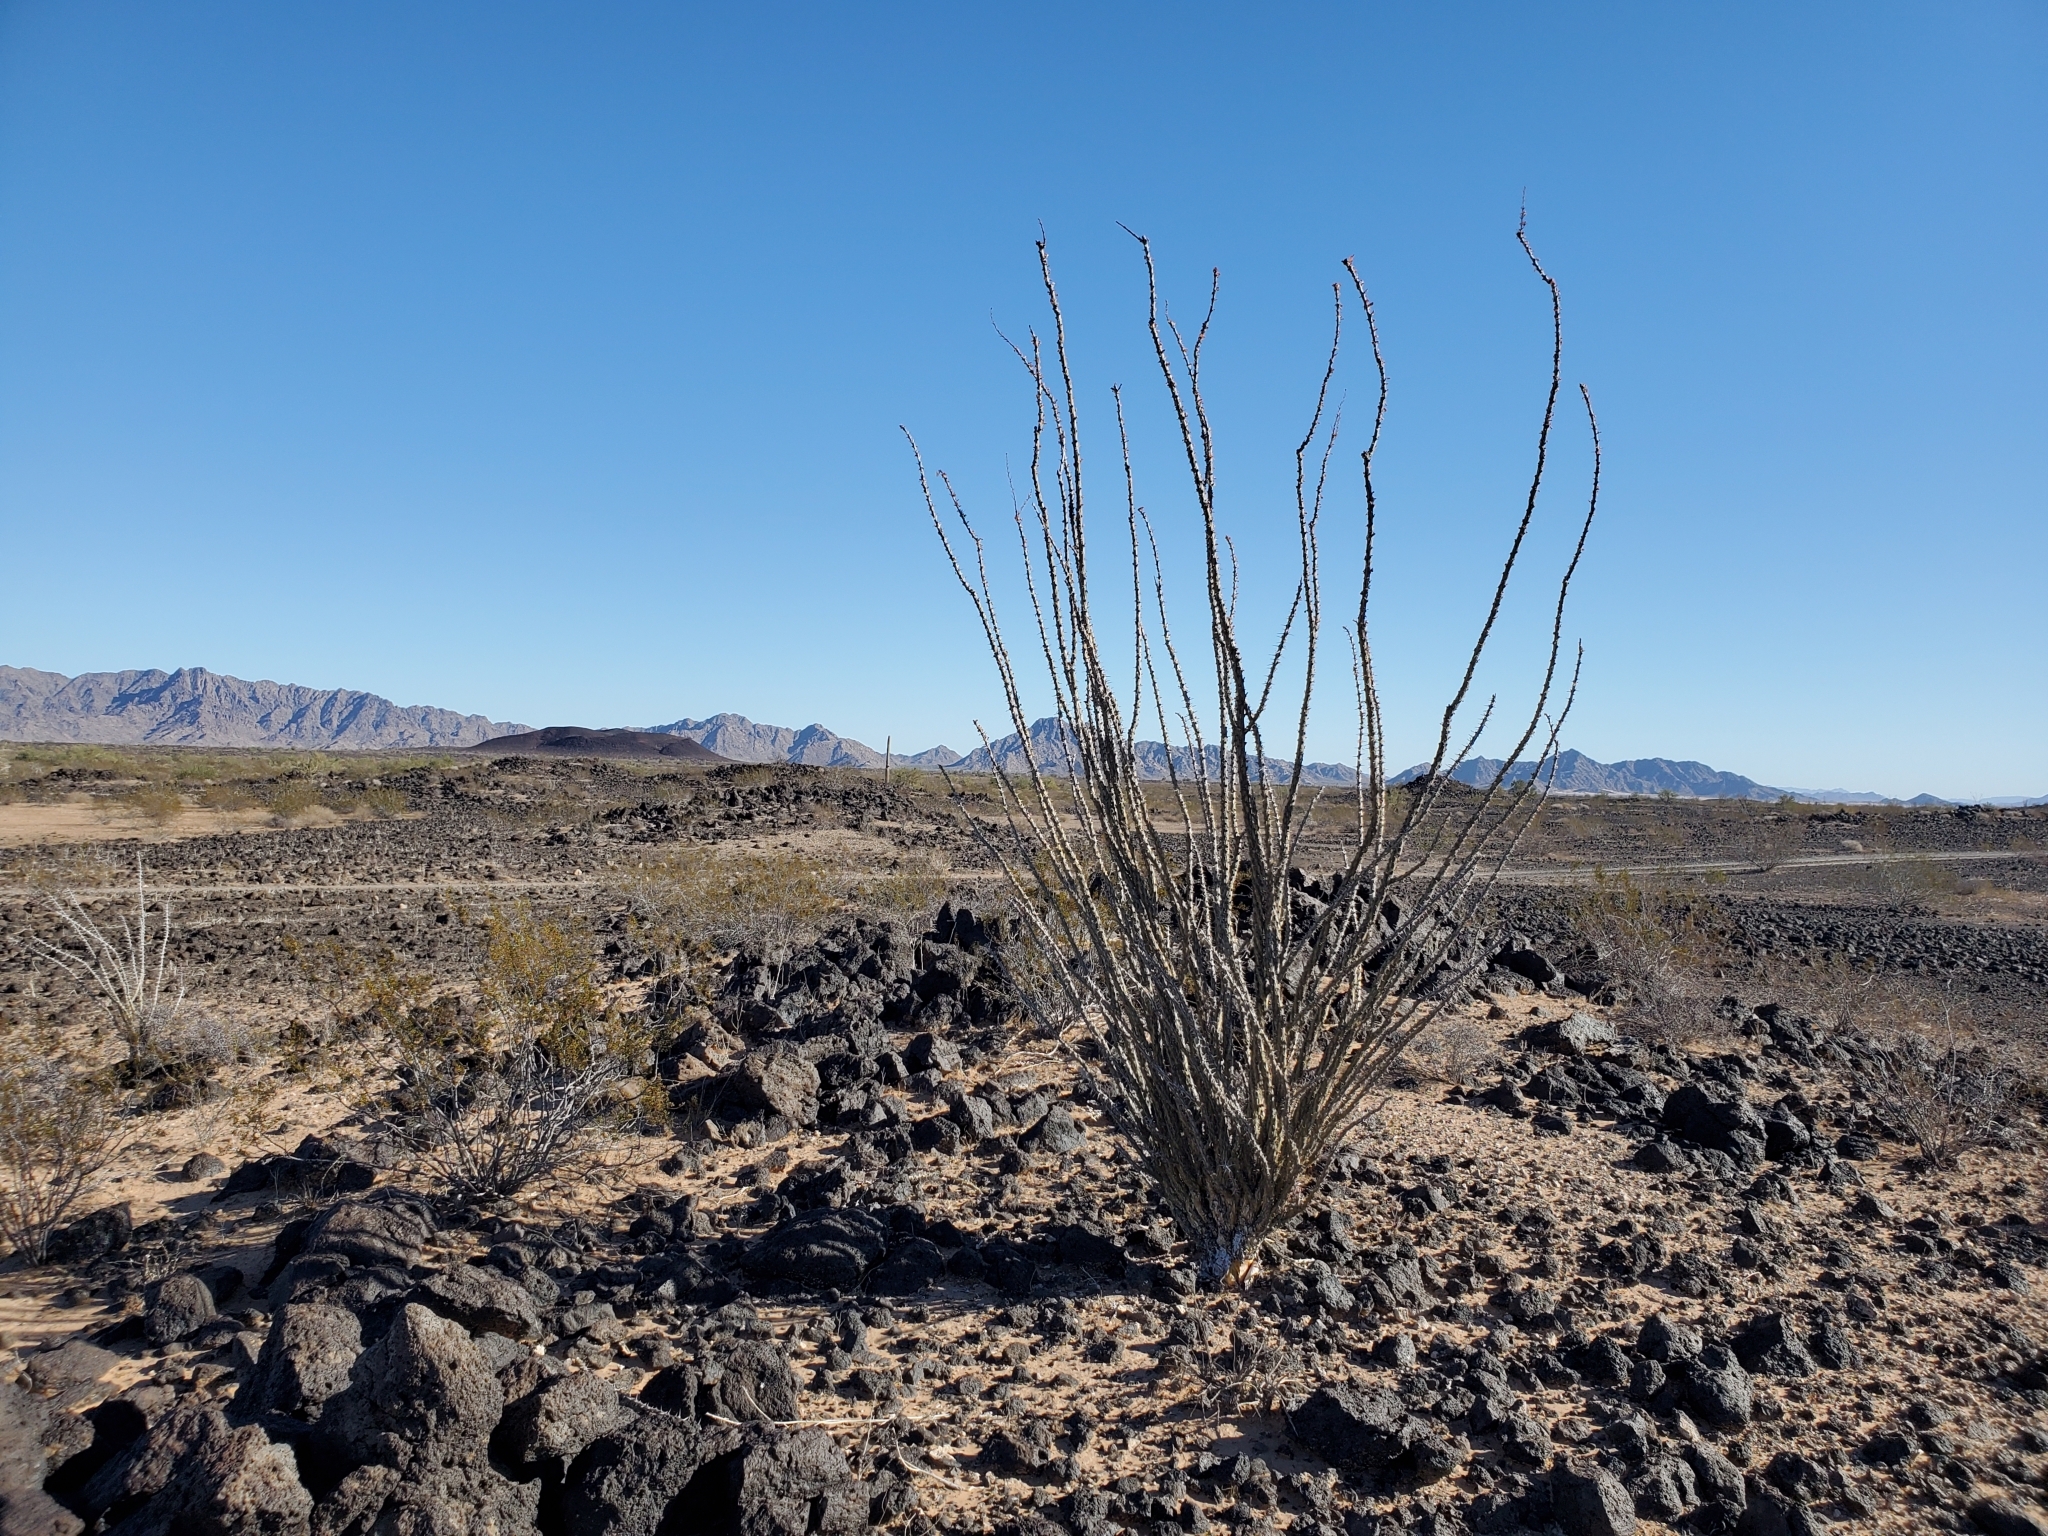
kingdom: Plantae
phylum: Tracheophyta
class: Magnoliopsida
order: Ericales
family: Fouquieriaceae
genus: Fouquieria
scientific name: Fouquieria splendens
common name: Vine-cactus
